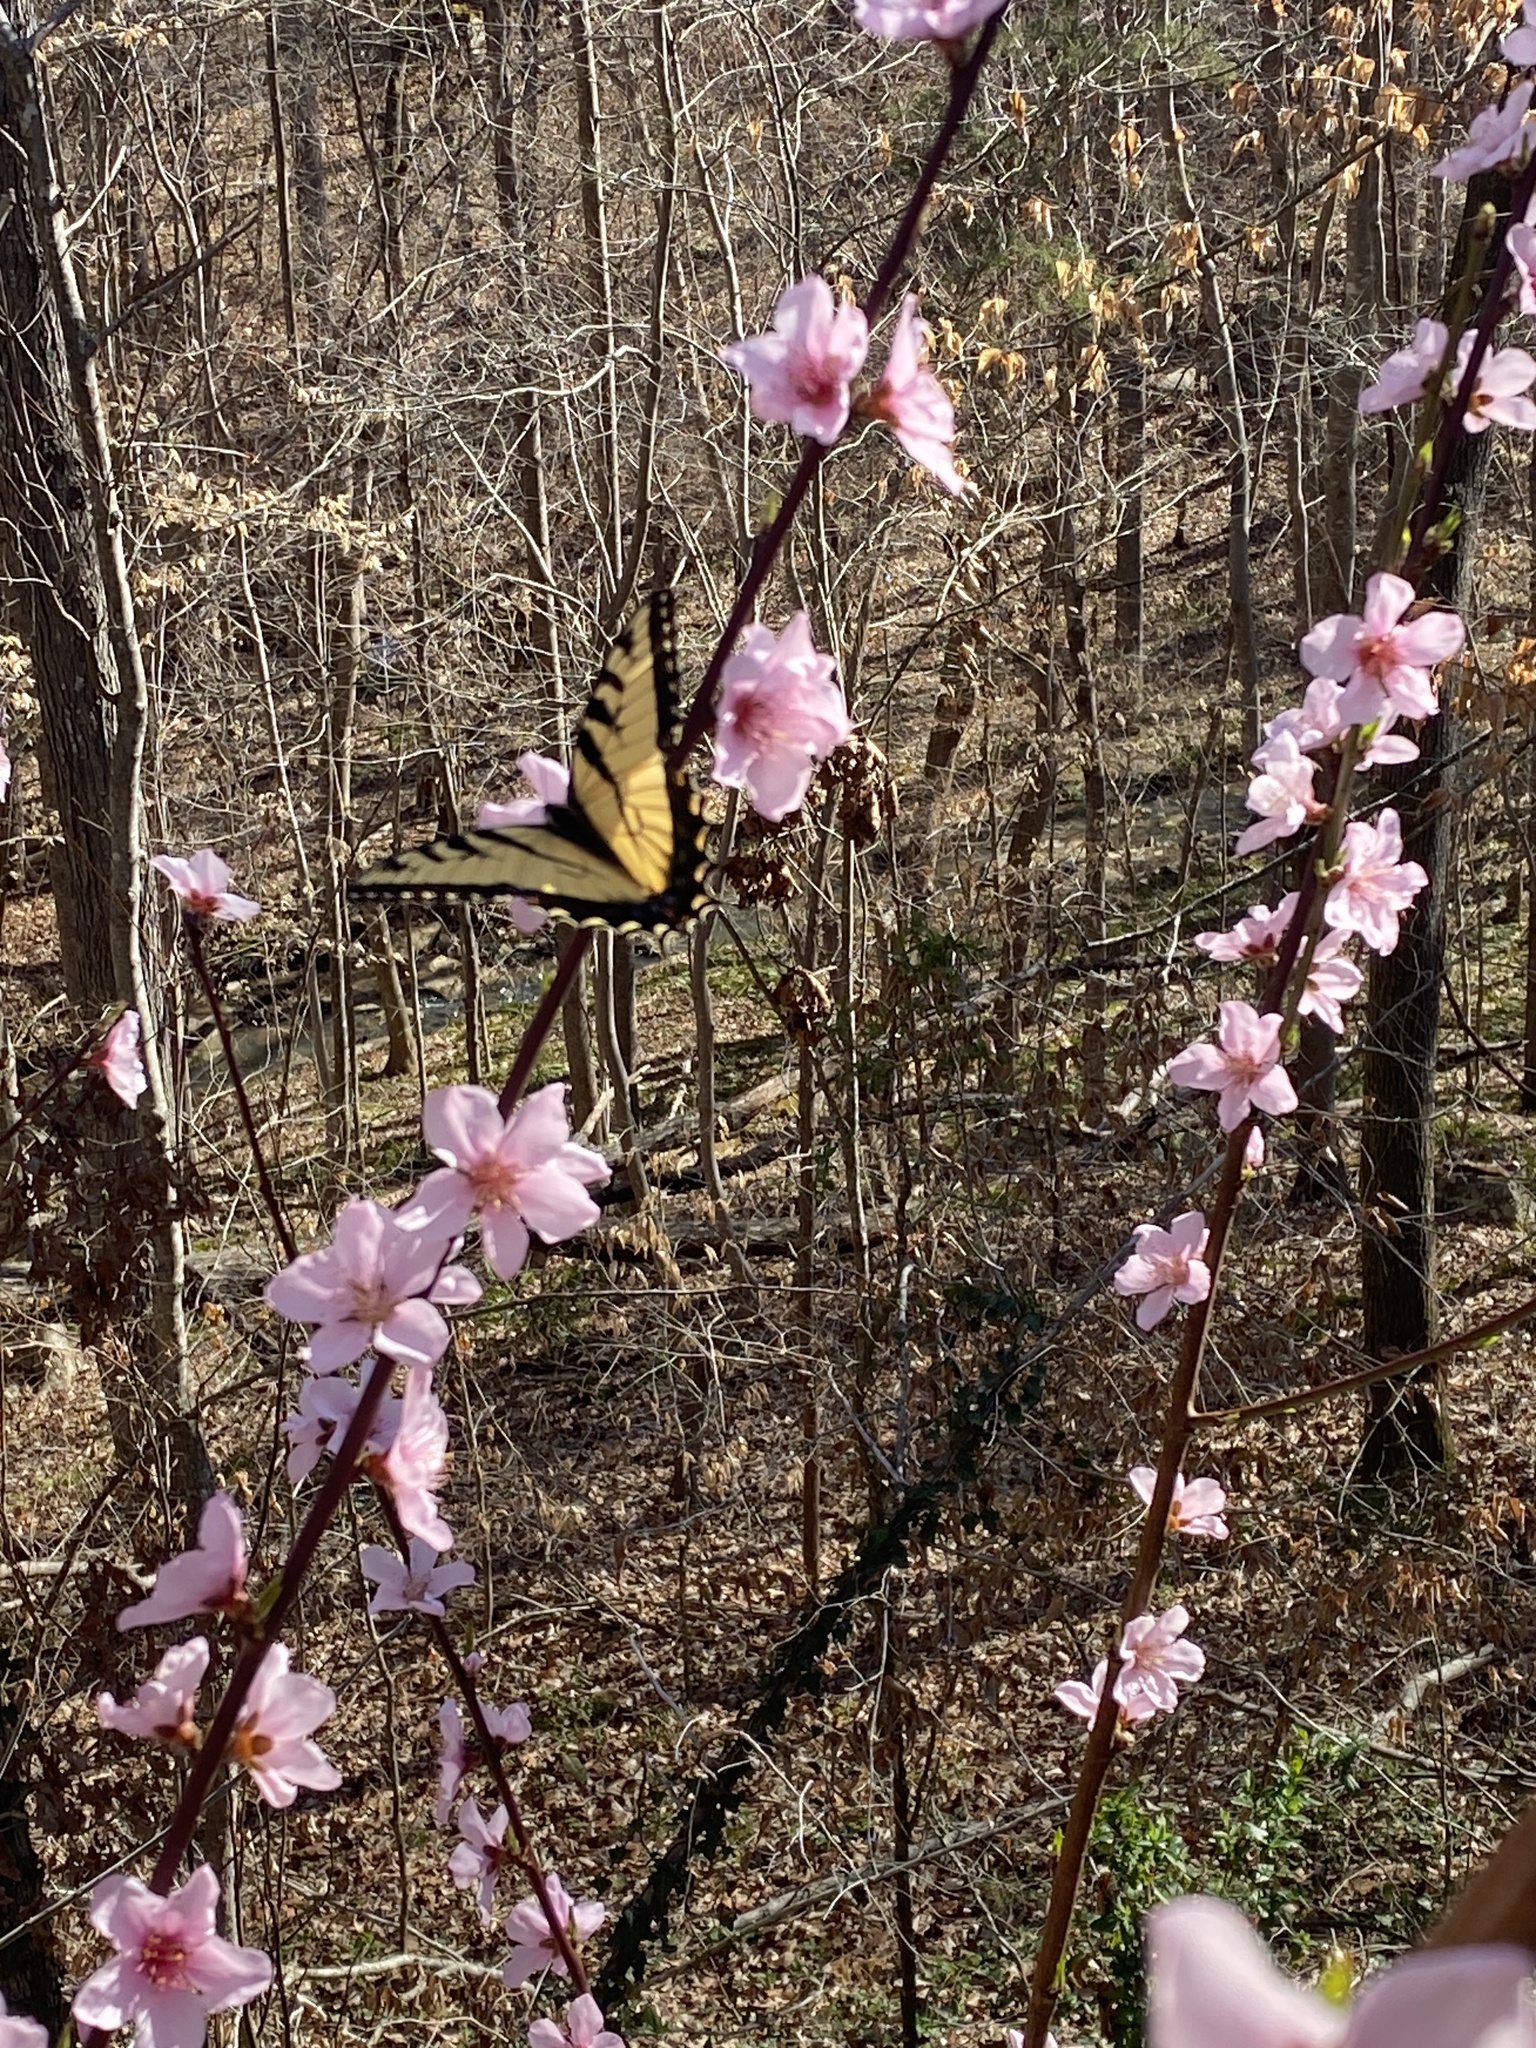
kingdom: Animalia
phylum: Arthropoda
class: Insecta
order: Lepidoptera
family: Papilionidae
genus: Papilio
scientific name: Papilio glaucus
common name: Tiger swallowtail
